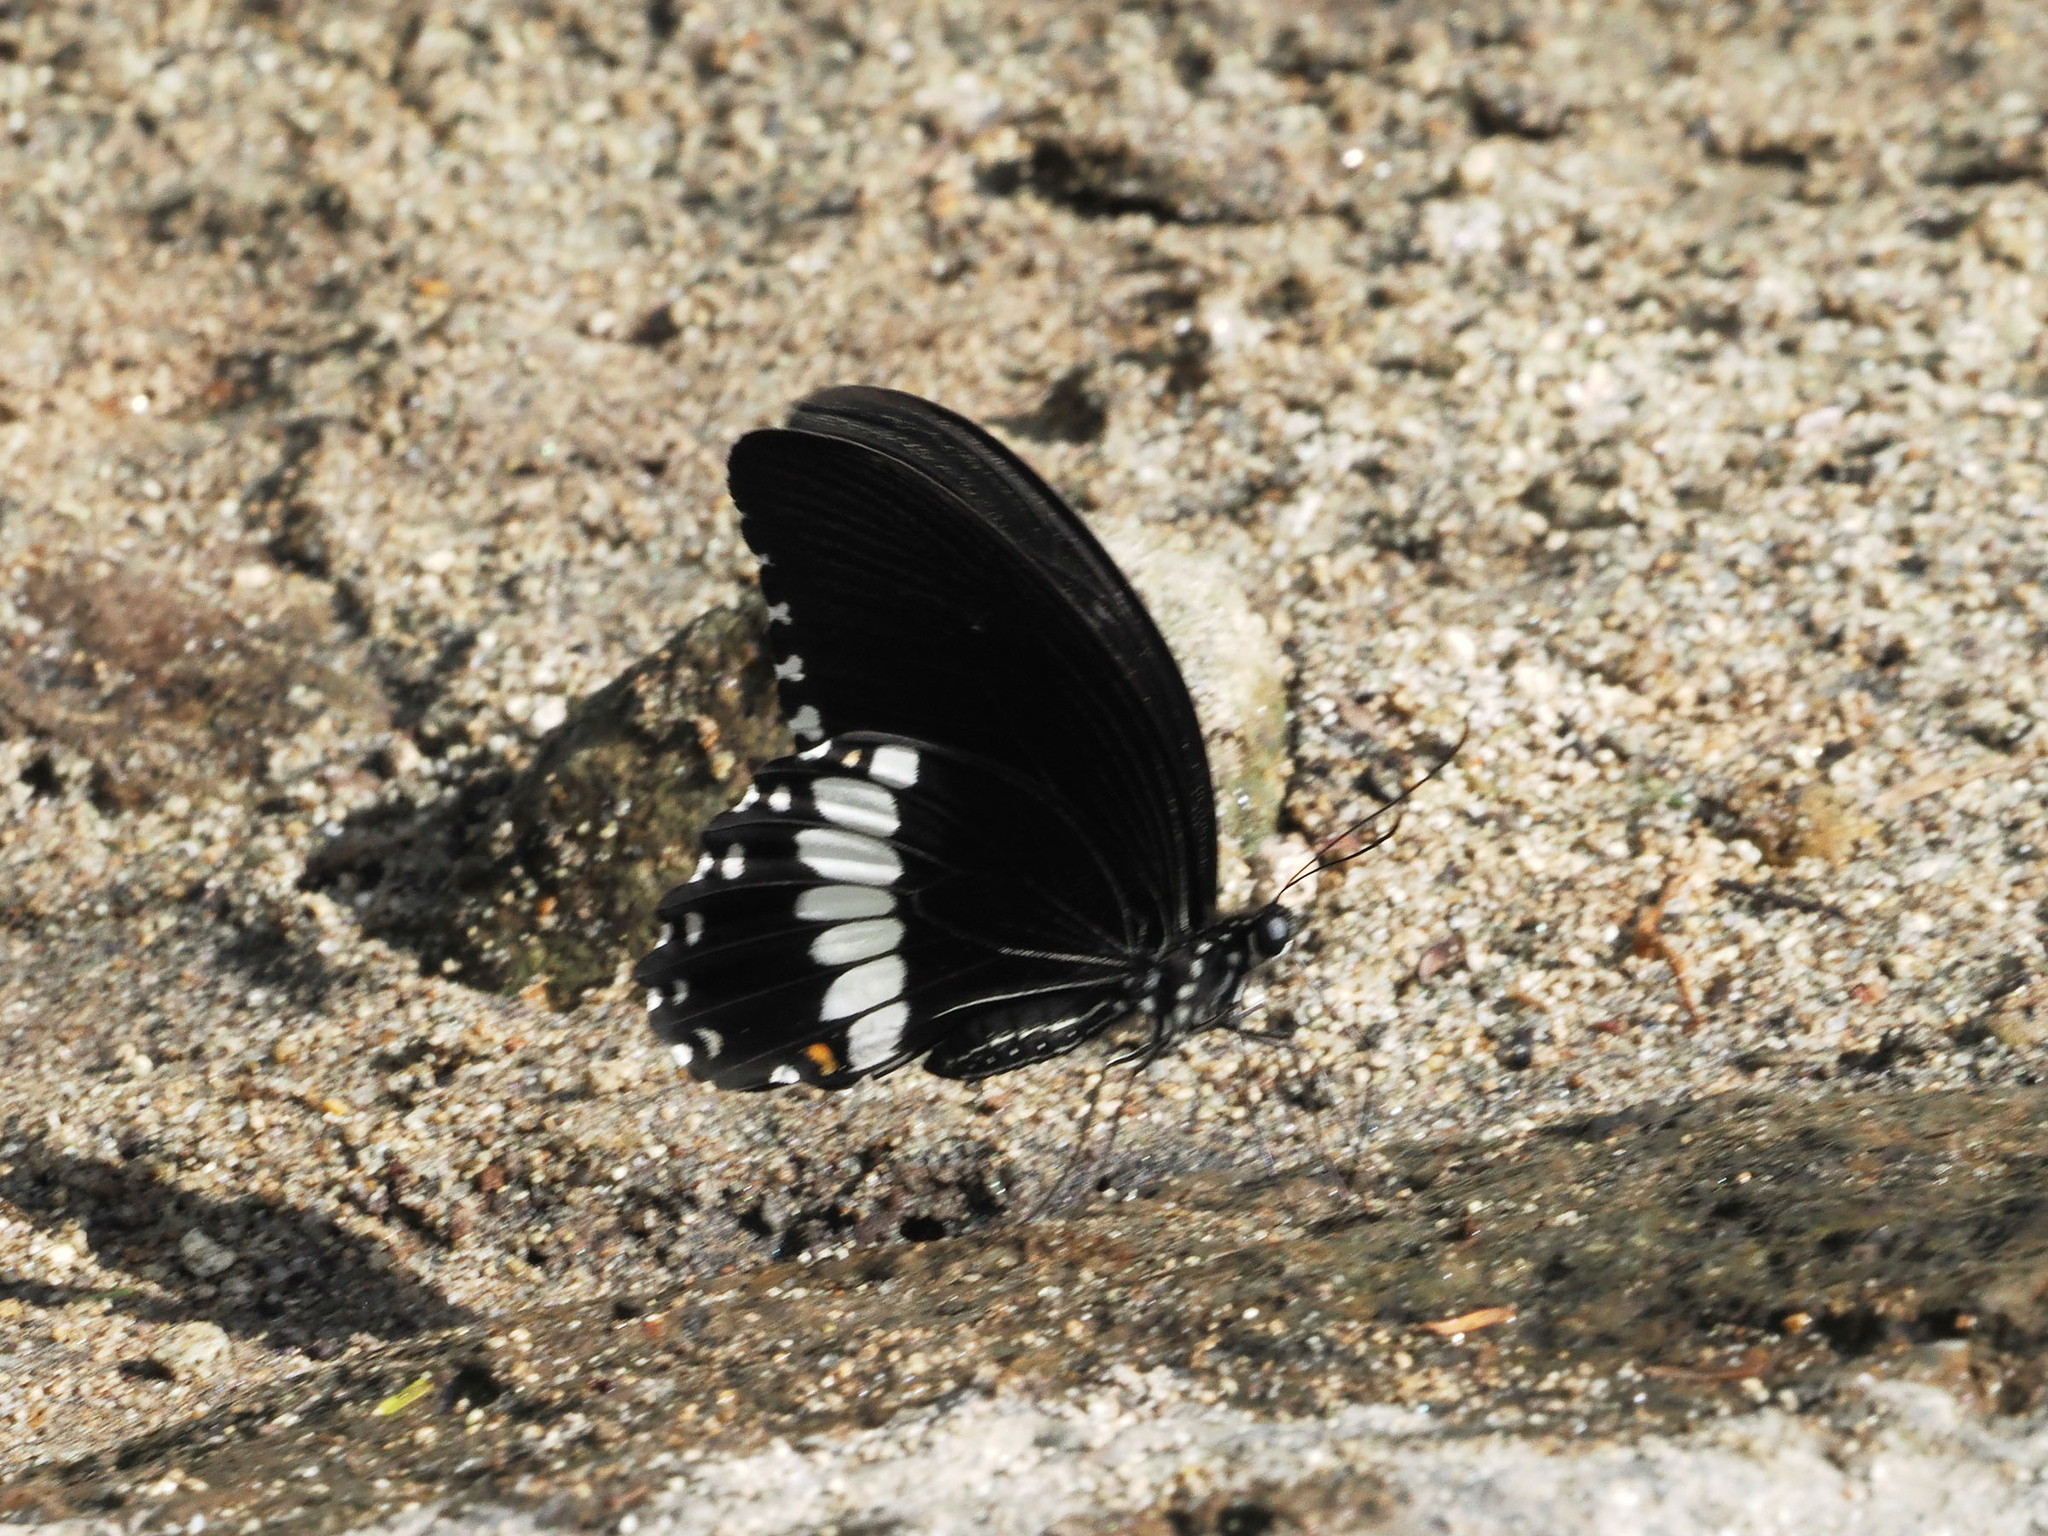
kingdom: Animalia
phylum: Arthropoda
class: Insecta
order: Lepidoptera
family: Papilionidae
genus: Papilio
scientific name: Papilio alphenor
